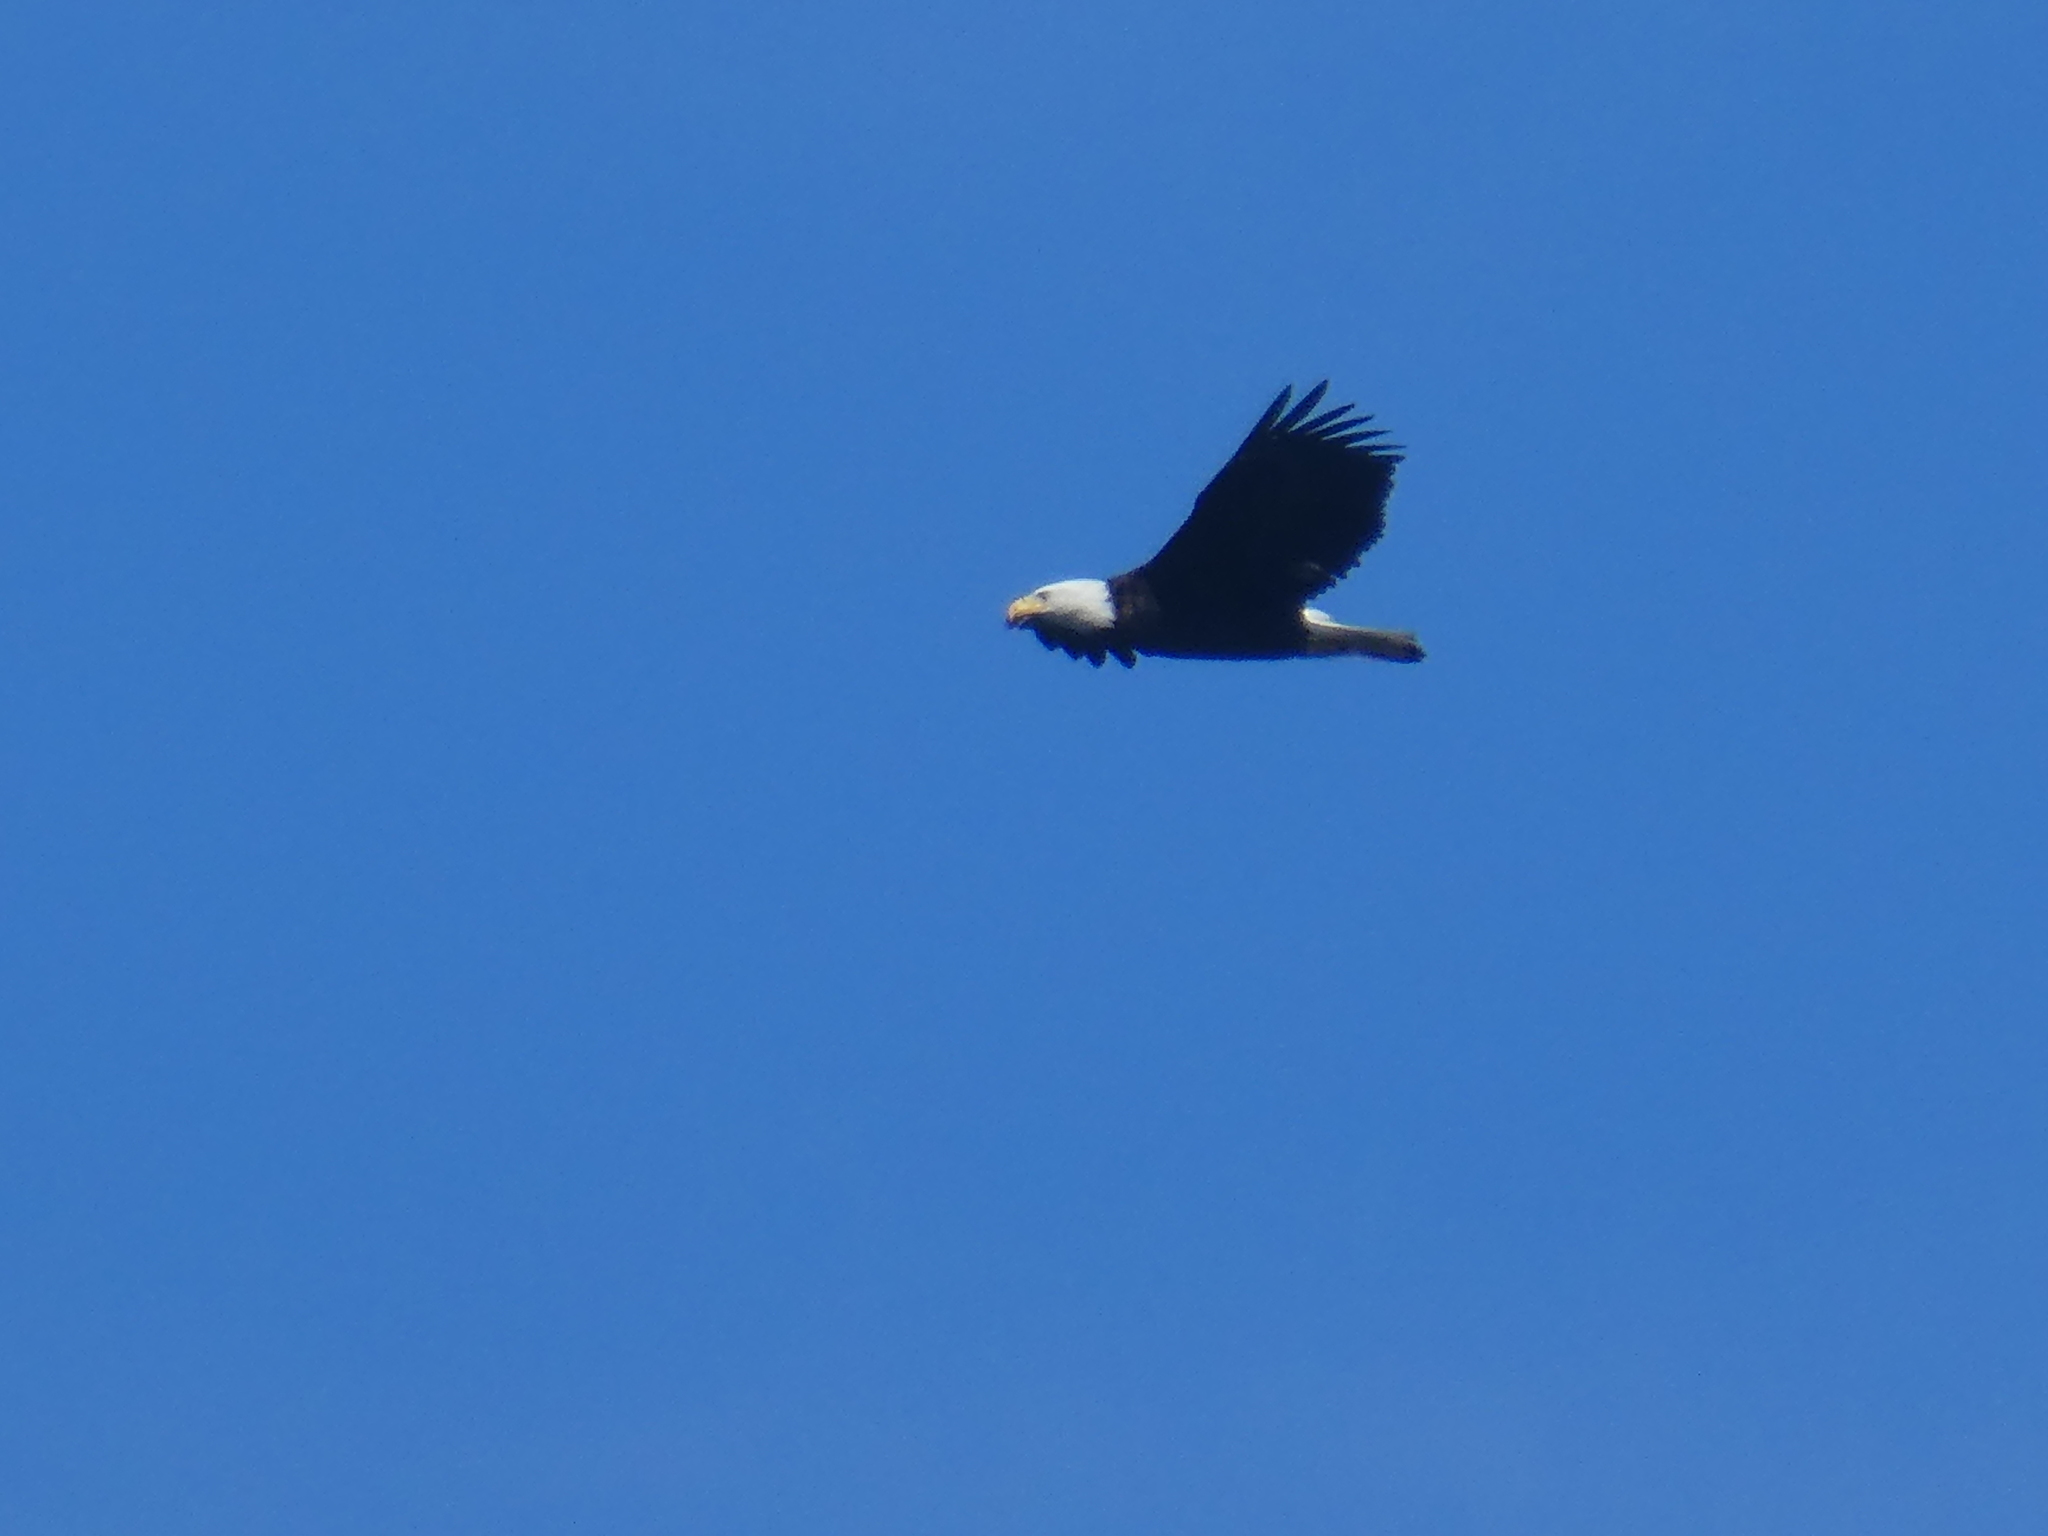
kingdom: Animalia
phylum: Chordata
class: Aves
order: Accipitriformes
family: Accipitridae
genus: Haliaeetus
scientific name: Haliaeetus leucocephalus
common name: Bald eagle
